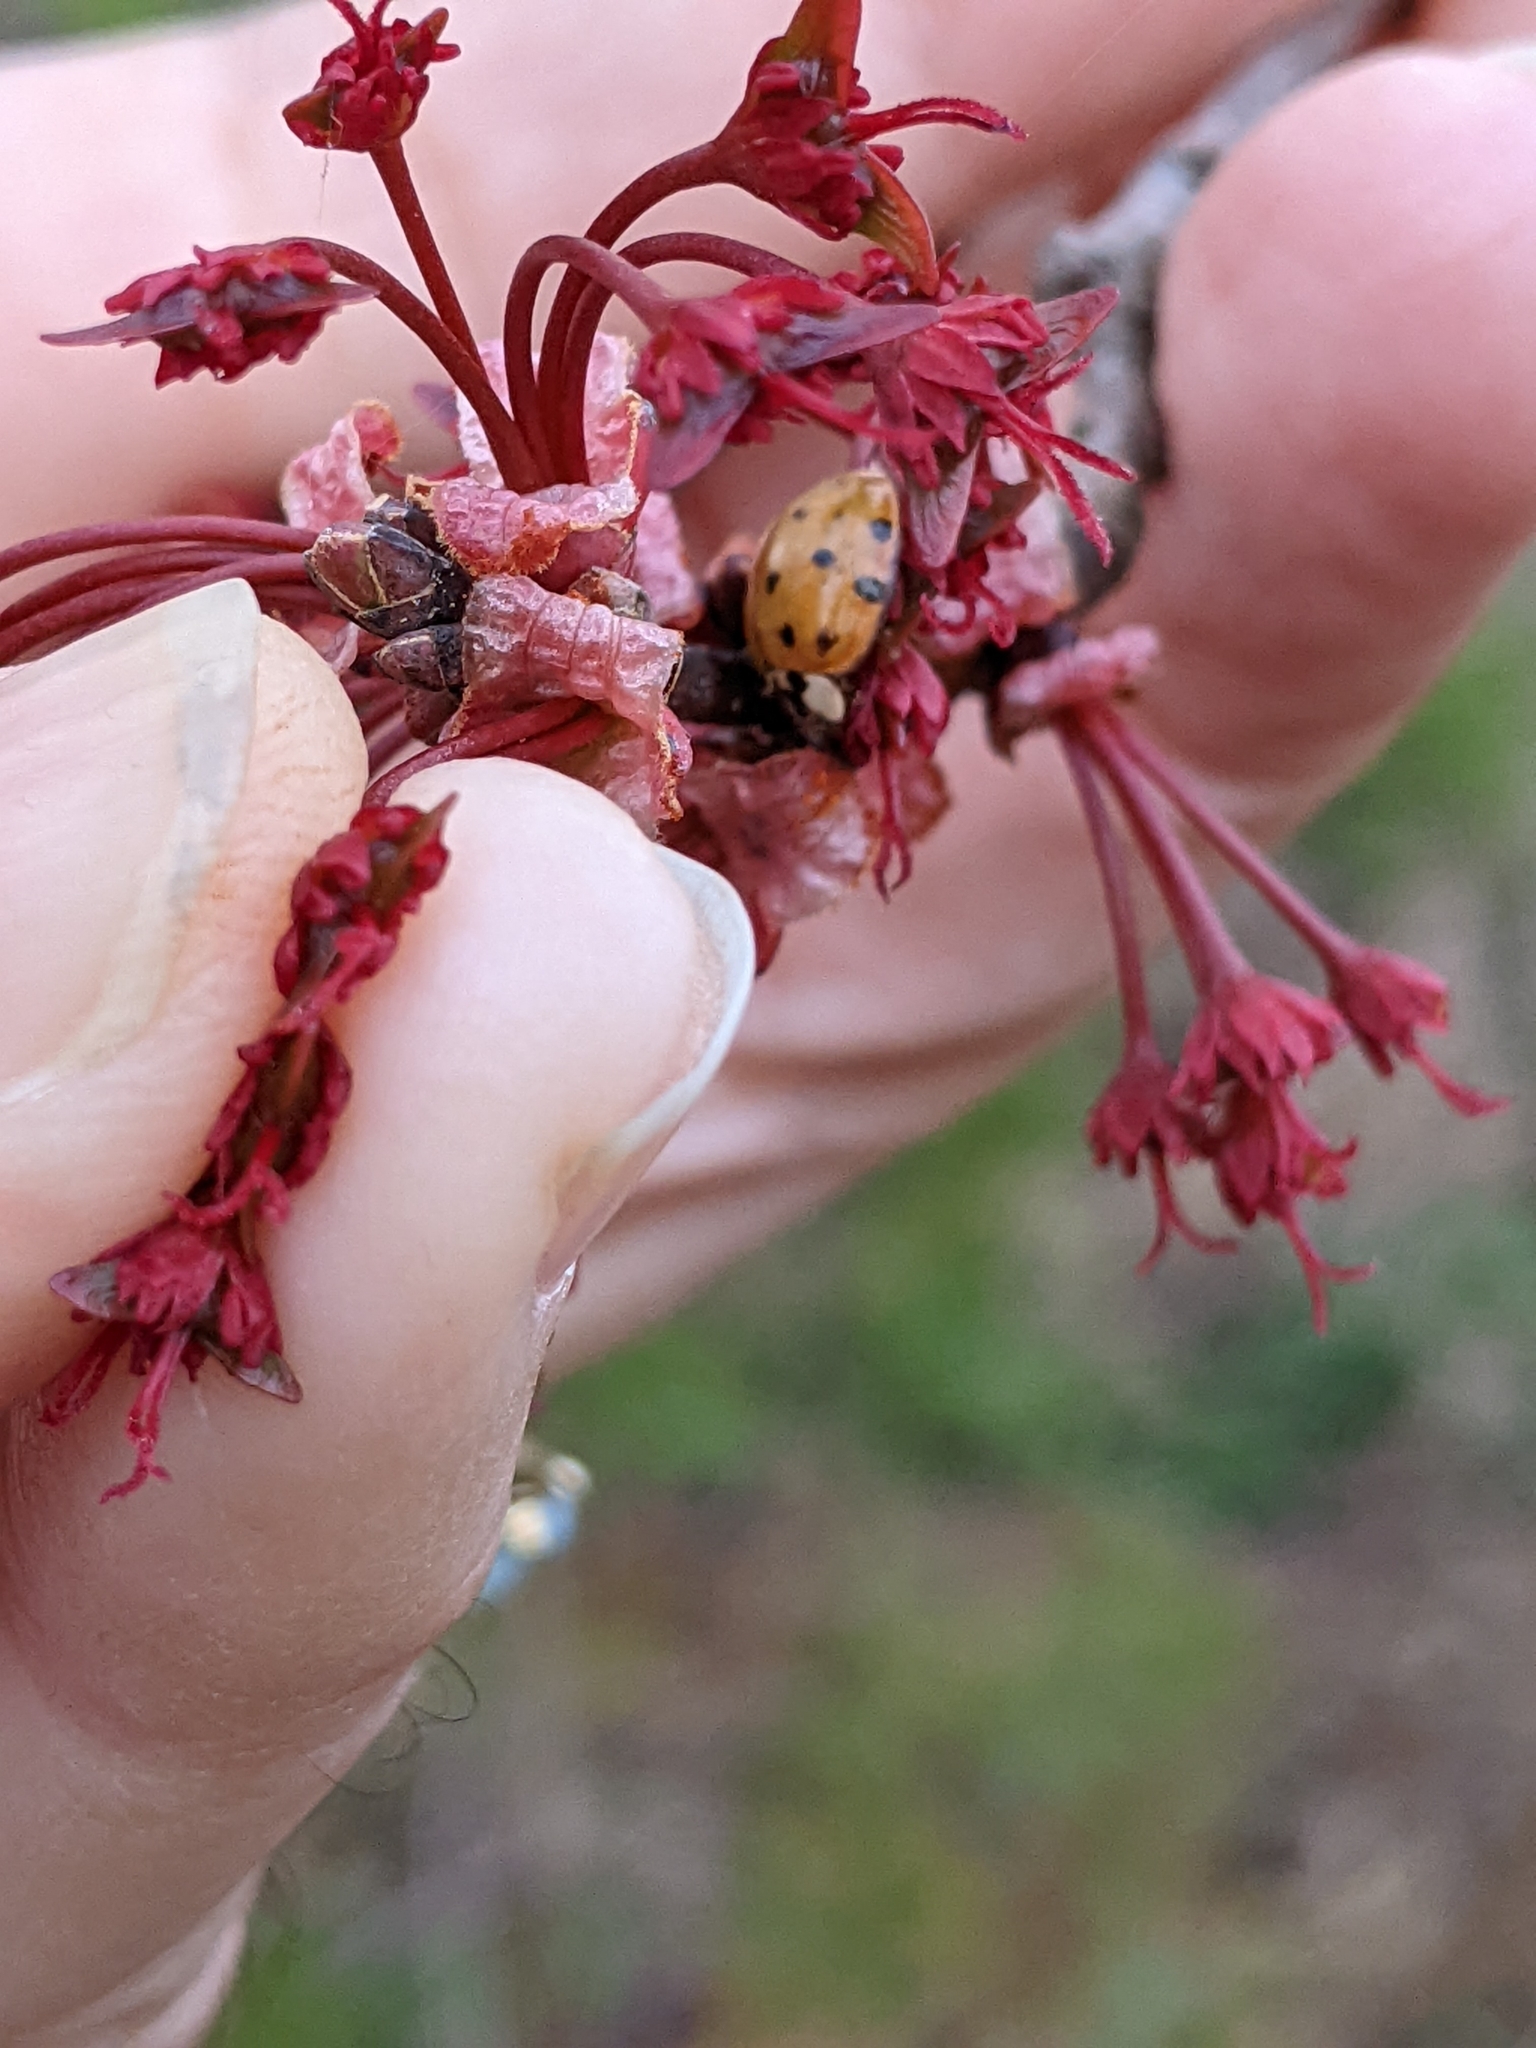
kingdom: Animalia
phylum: Arthropoda
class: Insecta
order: Coleoptera
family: Coccinellidae
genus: Harmonia
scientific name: Harmonia axyridis
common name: Harlequin ladybird
